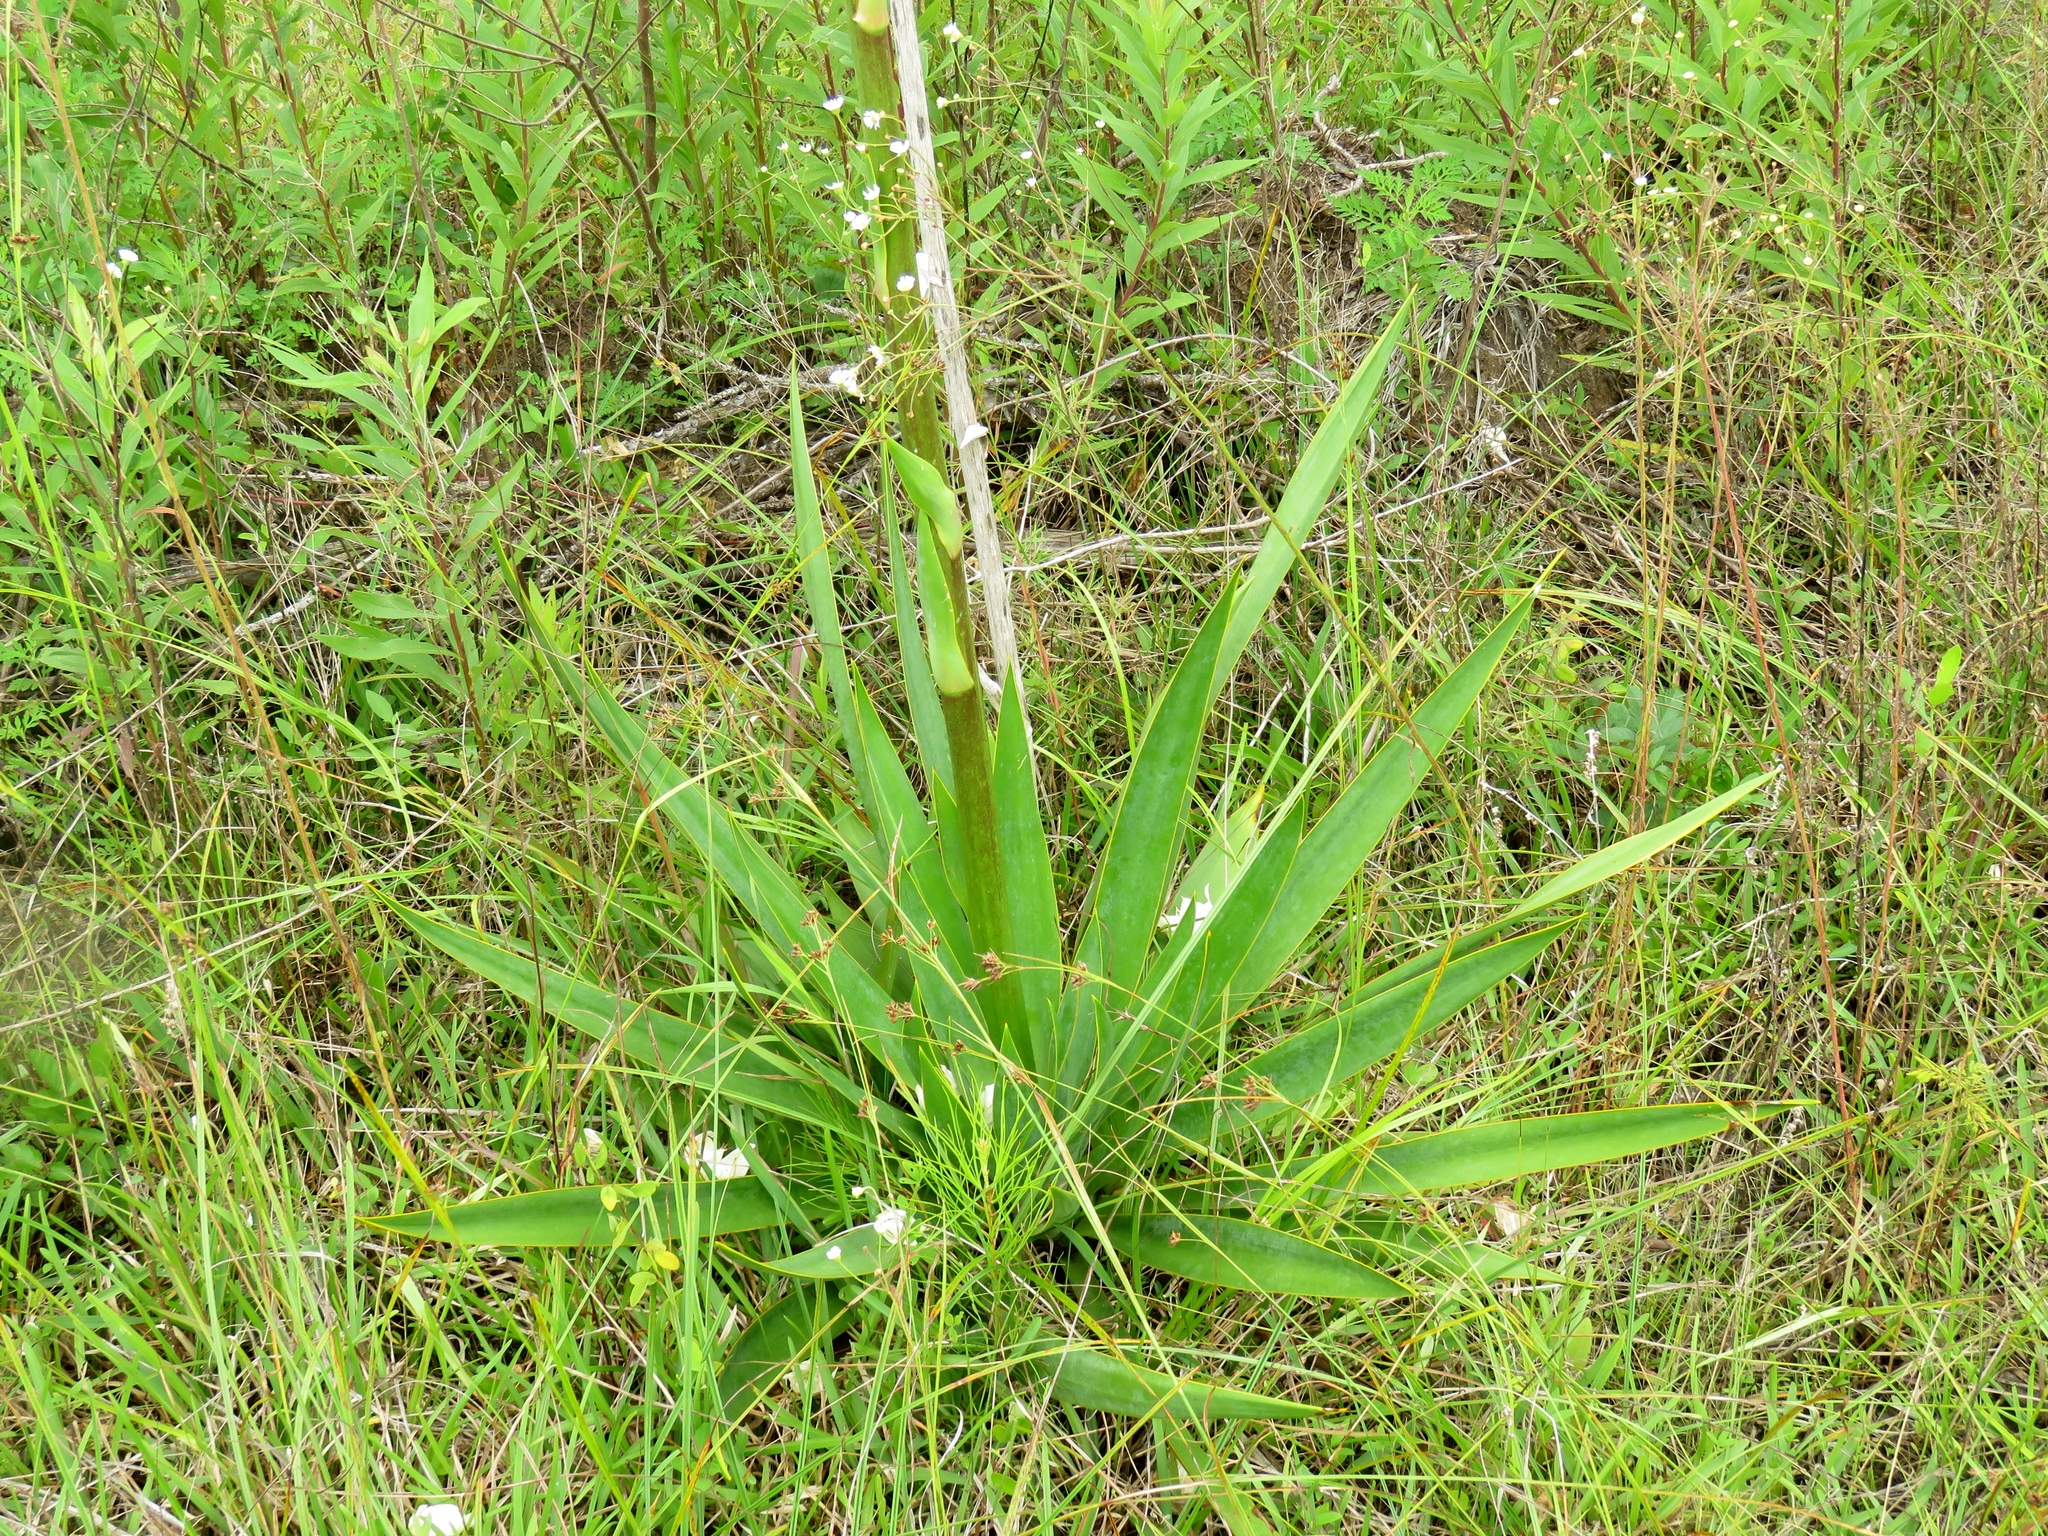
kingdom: Plantae
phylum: Tracheophyta
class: Liliopsida
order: Asparagales
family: Asparagaceae
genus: Yucca
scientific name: Yucca cernua
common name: Nodding yucca
